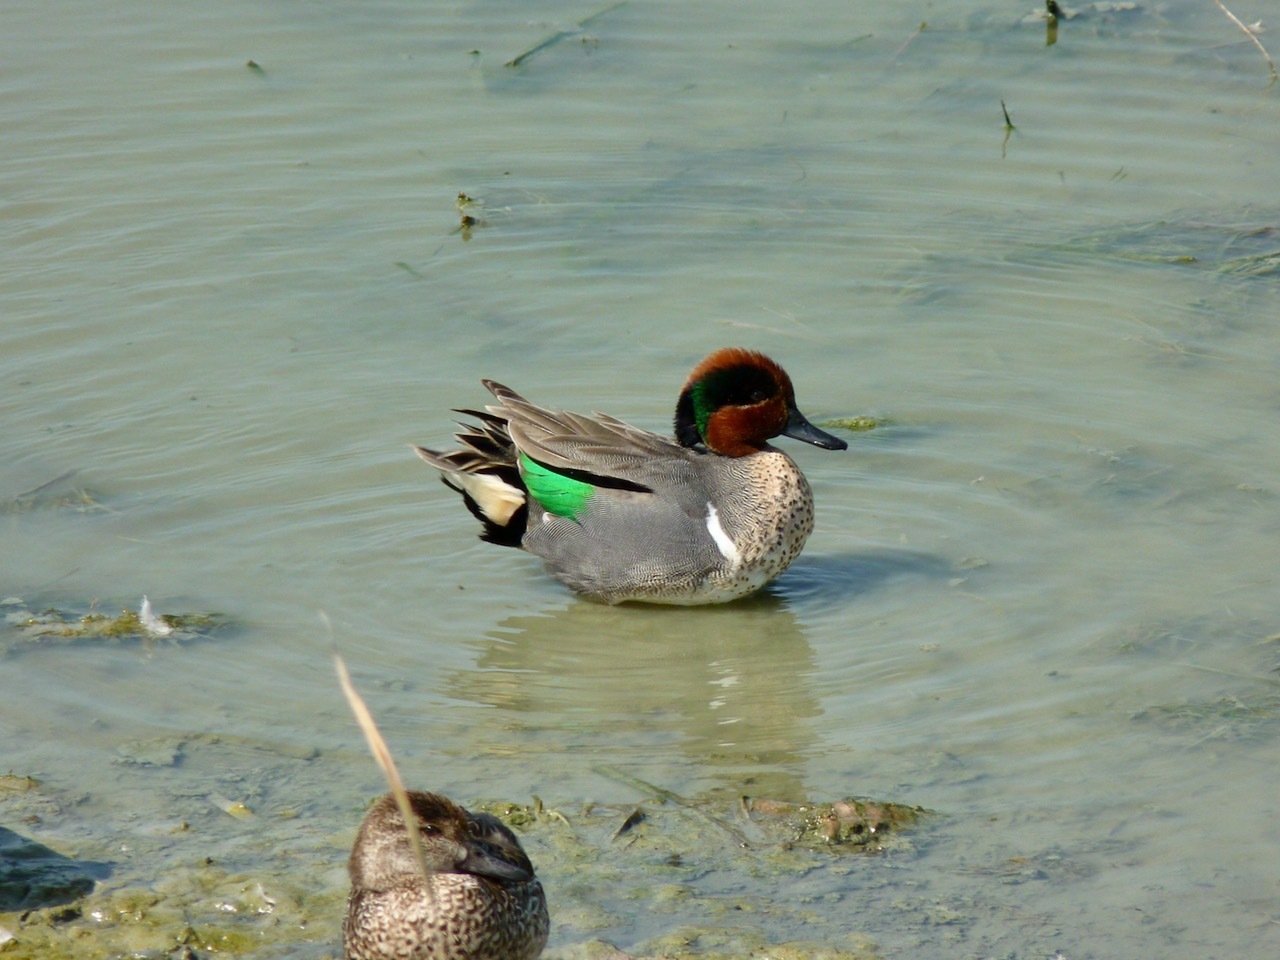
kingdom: Animalia
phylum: Chordata
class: Aves
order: Anseriformes
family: Anatidae
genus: Anas
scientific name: Anas crecca
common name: Eurasian teal
